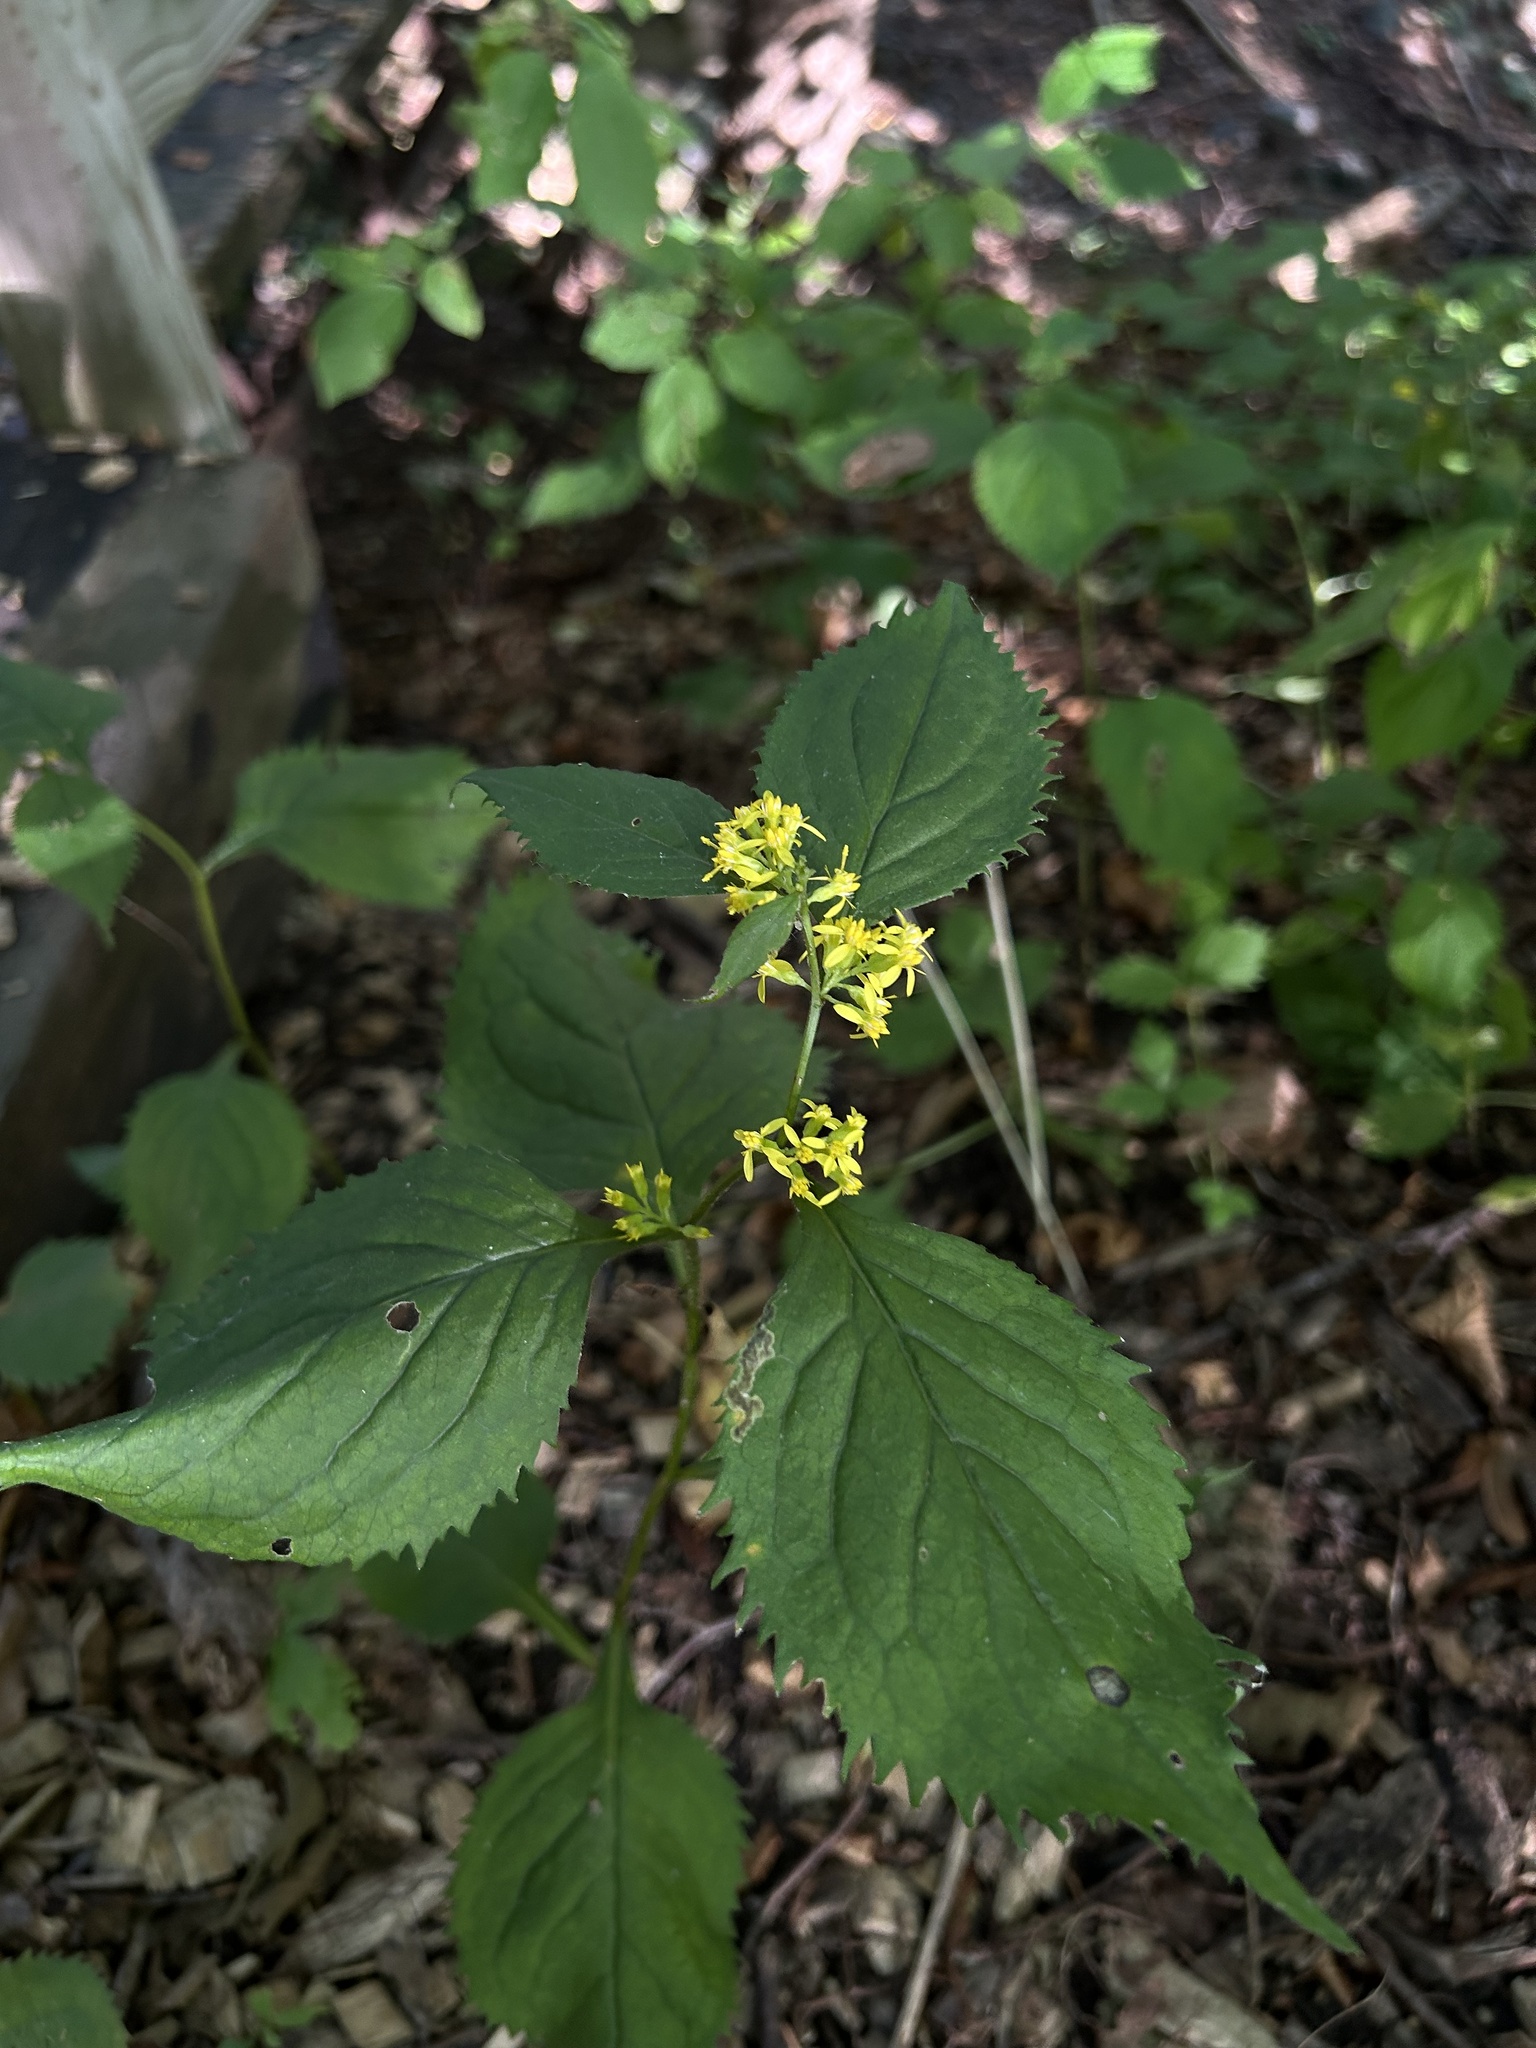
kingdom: Plantae
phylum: Tracheophyta
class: Magnoliopsida
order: Asterales
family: Asteraceae
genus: Solidago
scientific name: Solidago flexicaulis
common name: Zig-zag goldenrod
